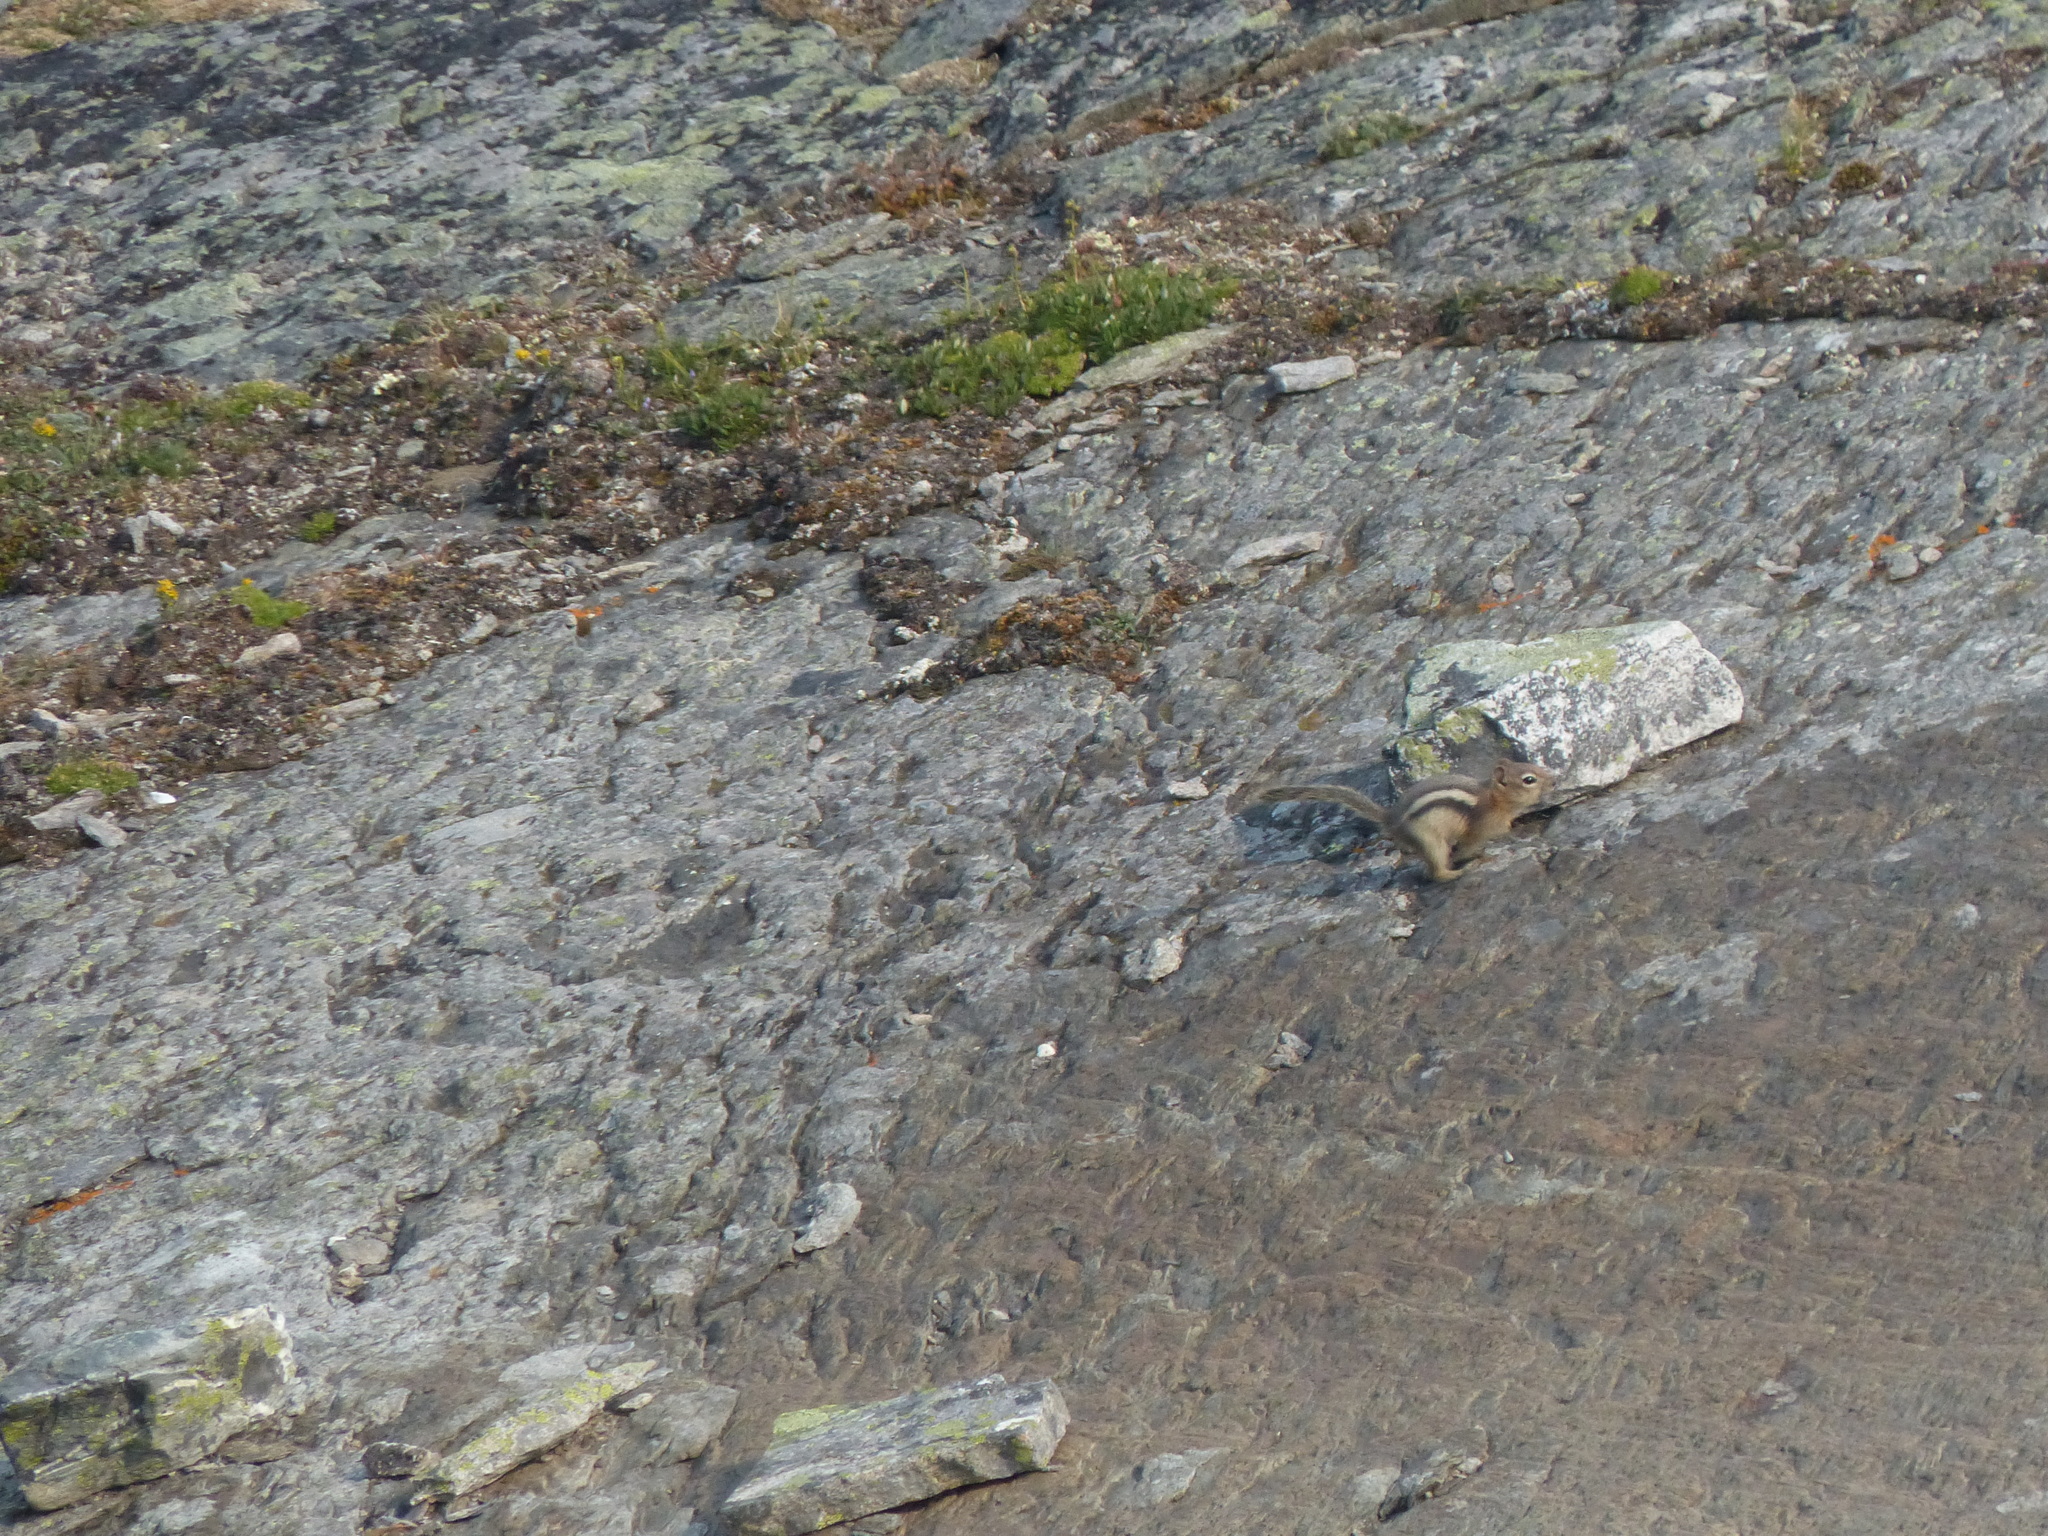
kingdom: Animalia
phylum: Chordata
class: Mammalia
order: Rodentia
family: Sciuridae
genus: Callospermophilus
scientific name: Callospermophilus lateralis
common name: Golden-mantled ground squirrel
